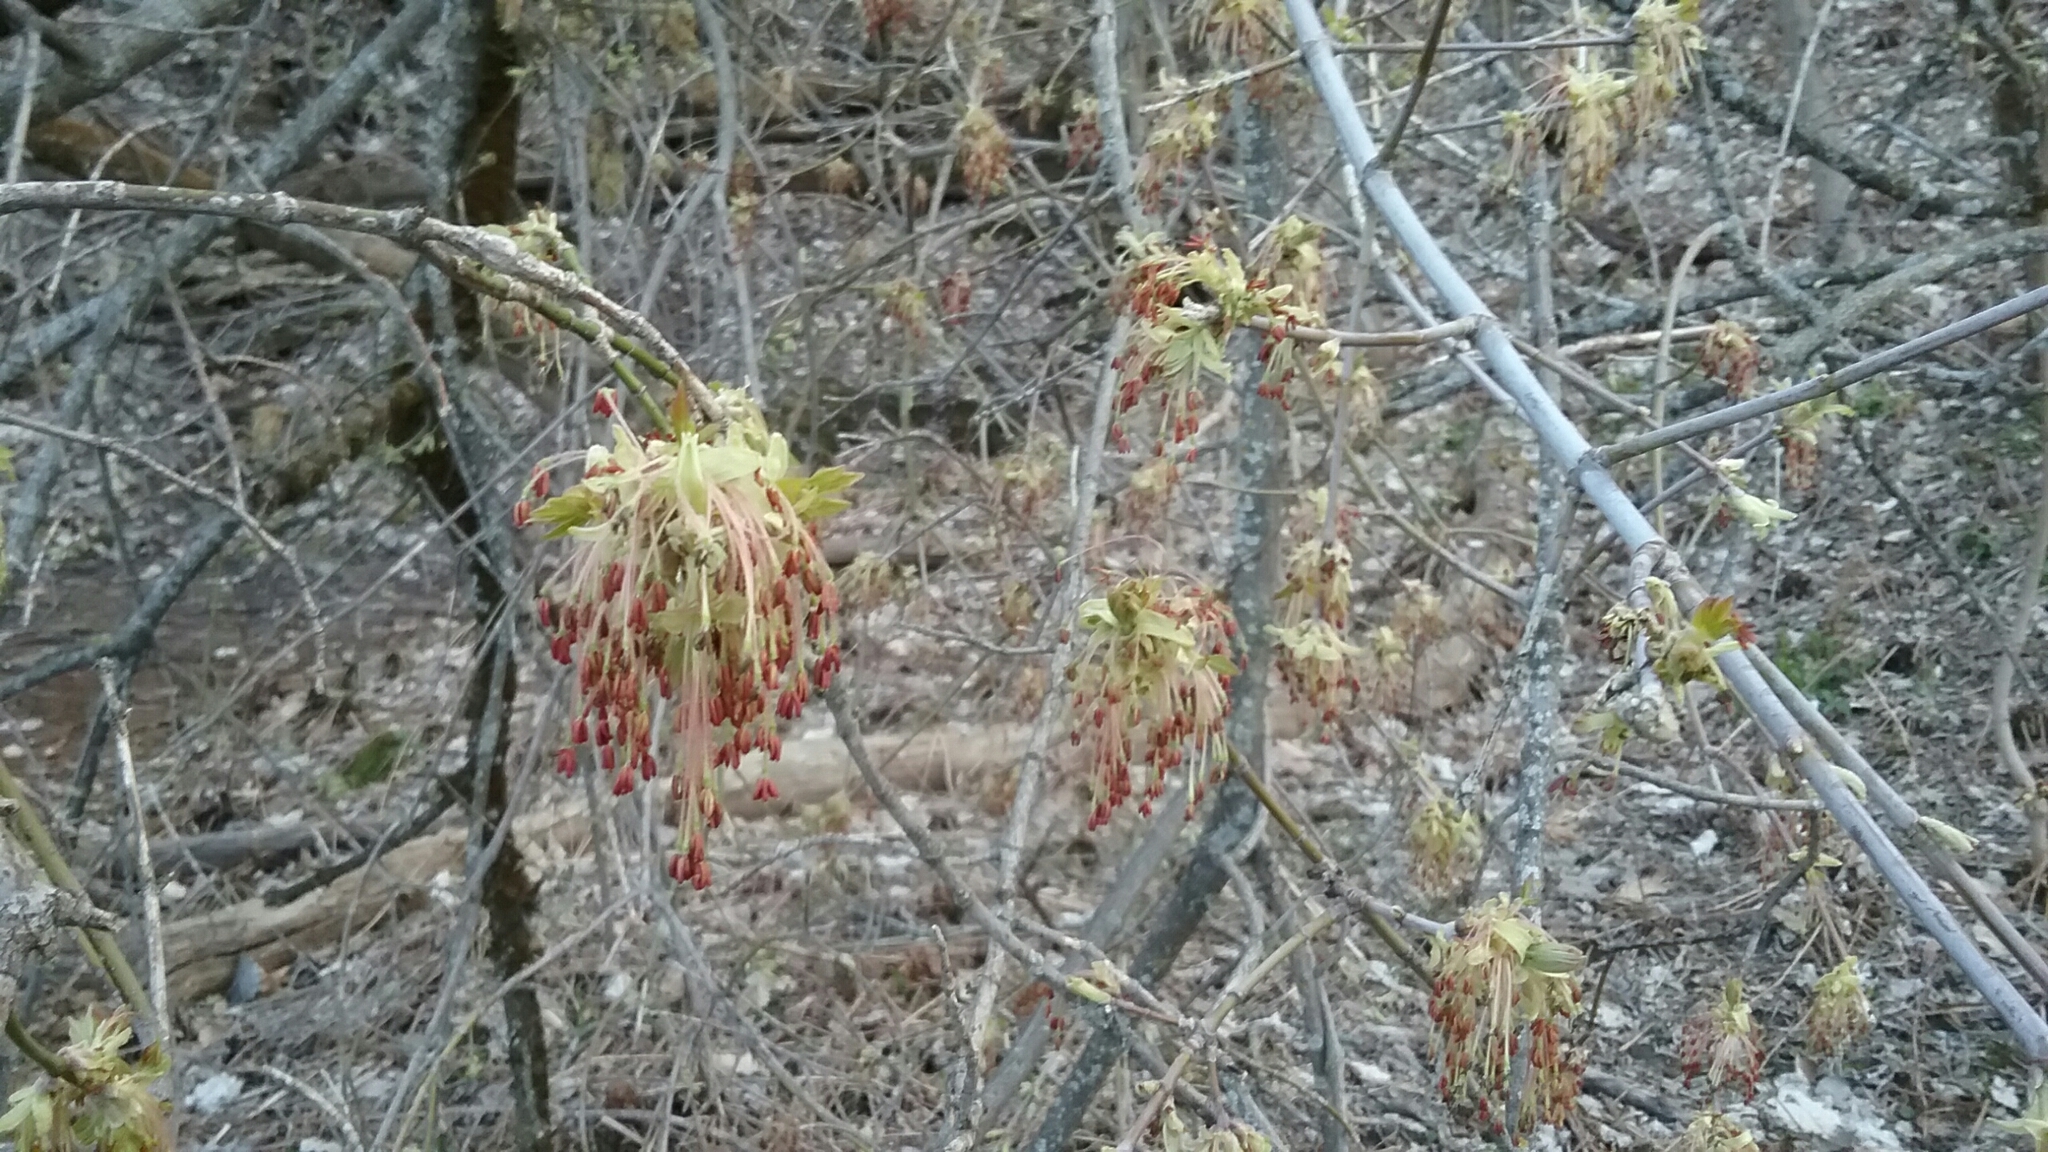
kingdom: Plantae
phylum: Tracheophyta
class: Magnoliopsida
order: Sapindales
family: Sapindaceae
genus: Acer
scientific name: Acer negundo
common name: Ashleaf maple
